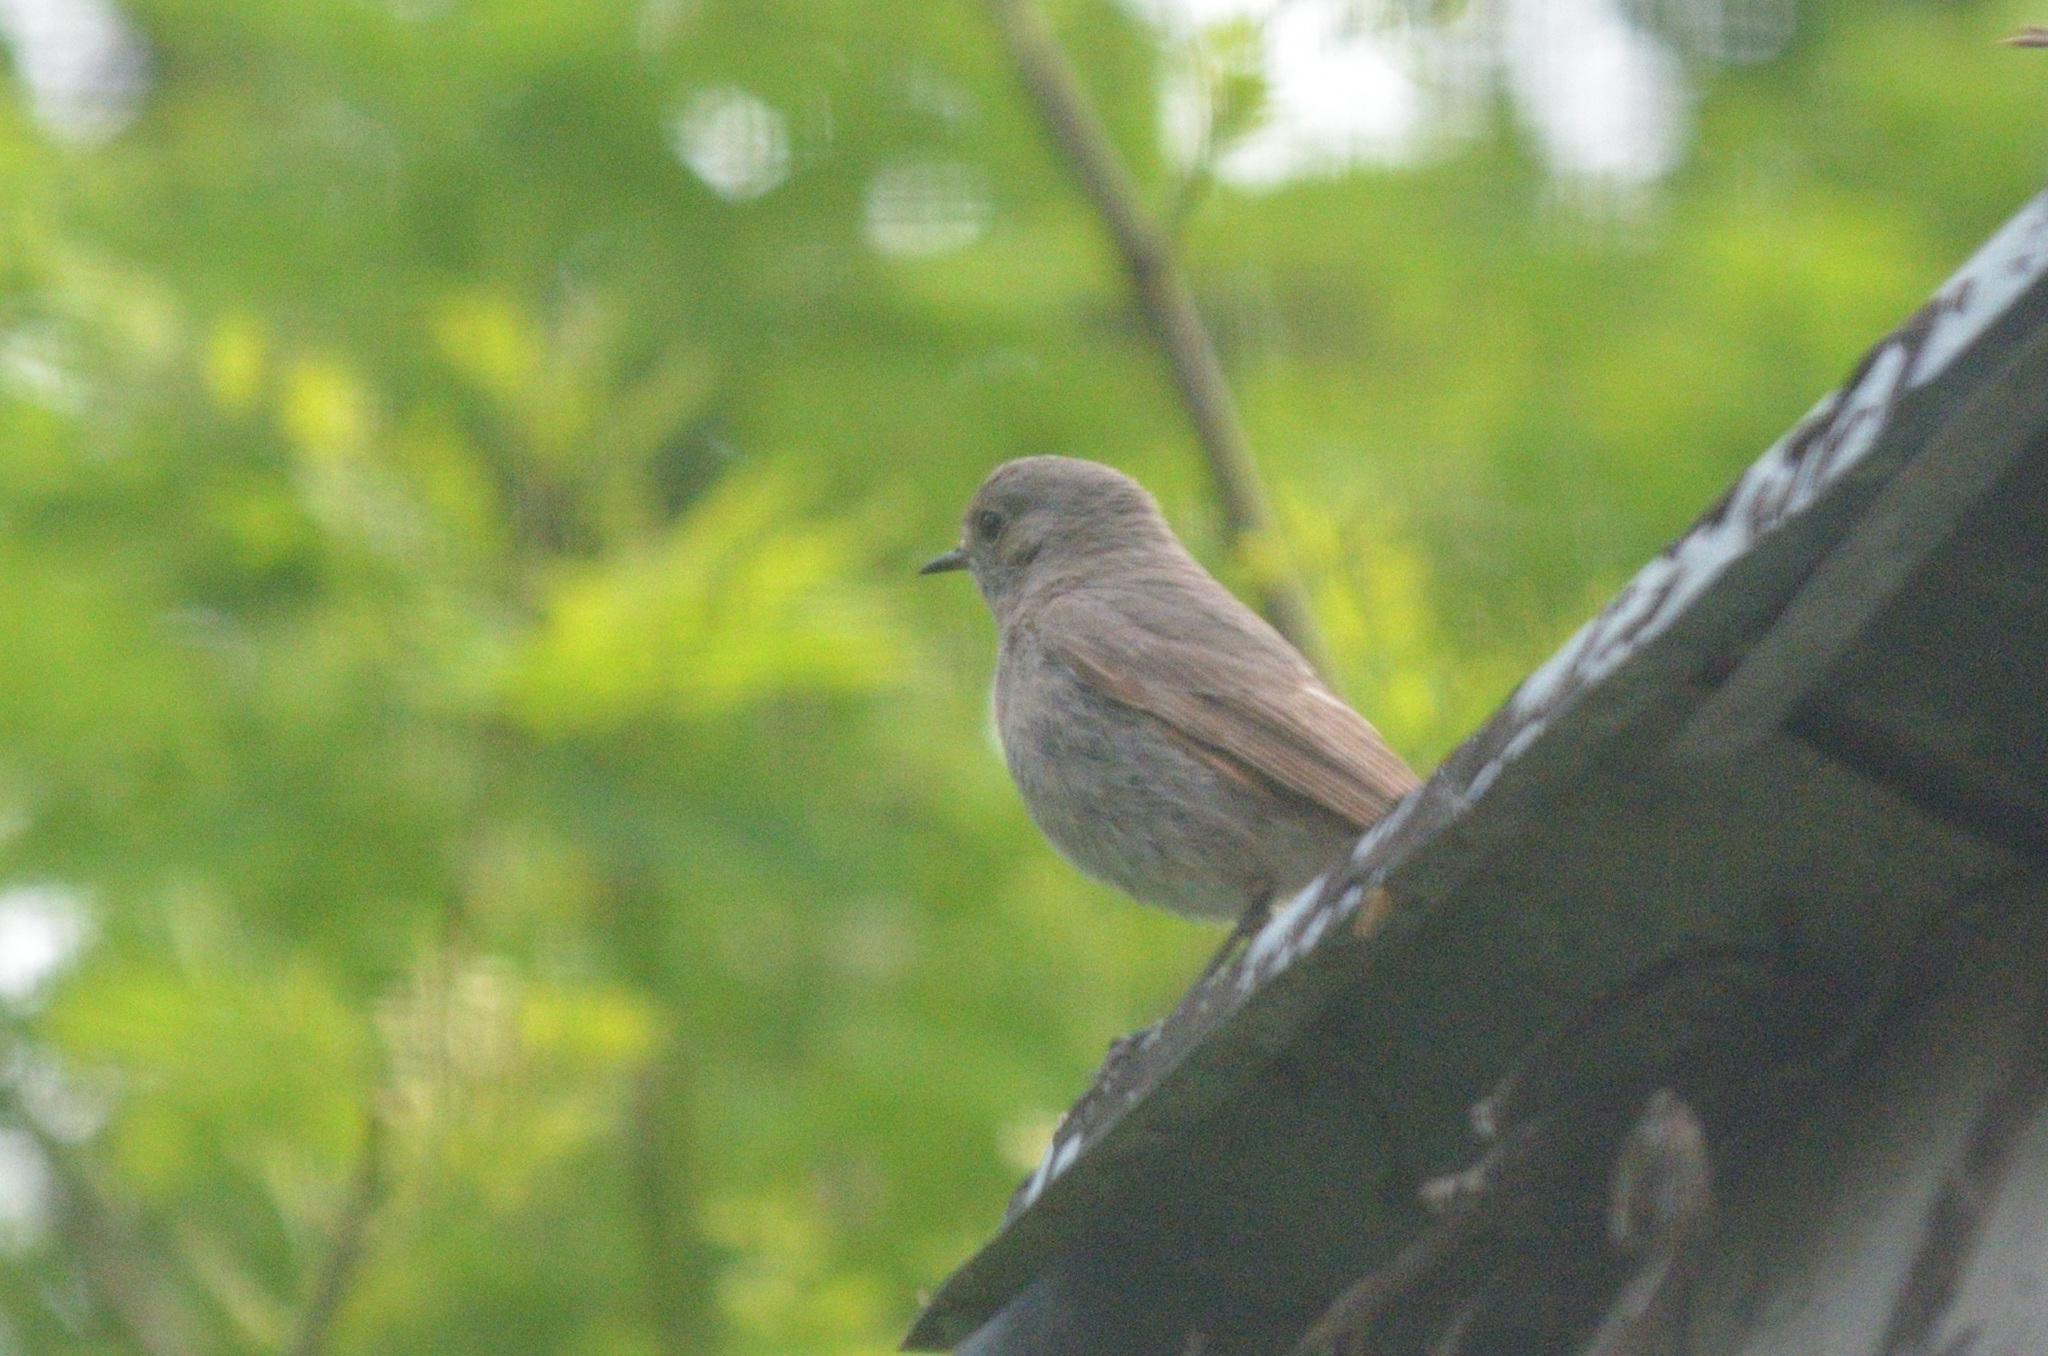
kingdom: Animalia
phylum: Chordata
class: Aves
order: Passeriformes
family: Muscicapidae
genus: Phoenicurus
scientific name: Phoenicurus ochruros
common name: Black redstart
